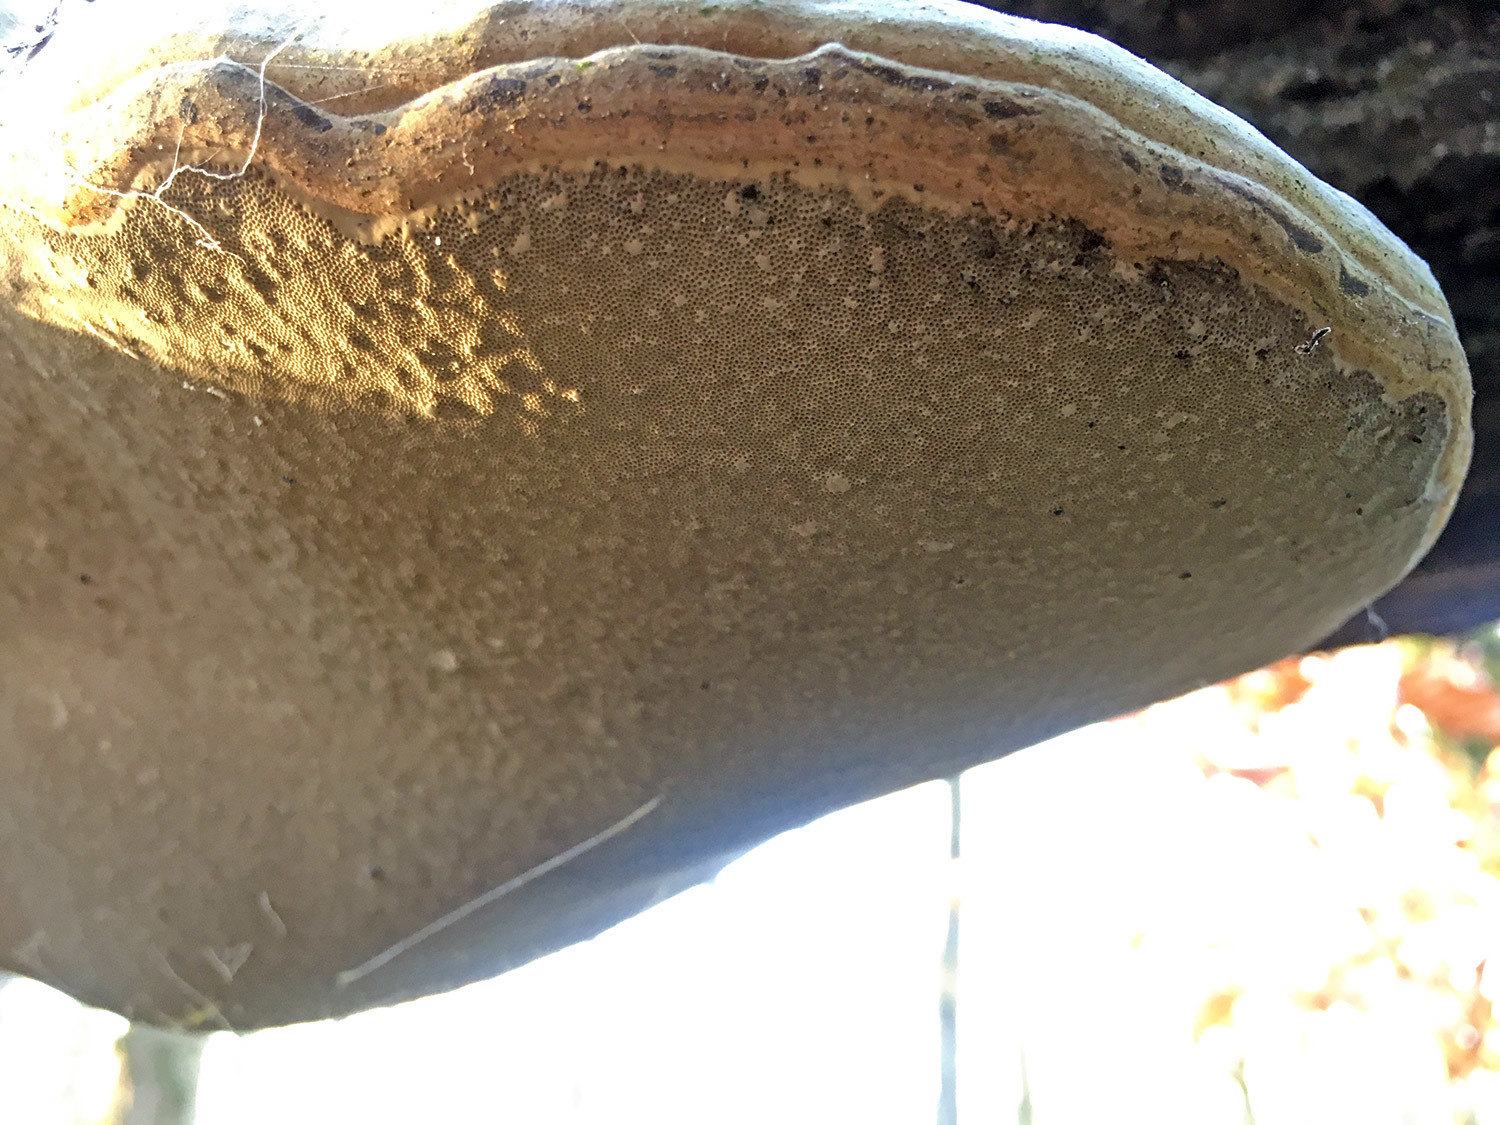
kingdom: Fungi
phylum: Basidiomycota
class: Agaricomycetes
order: Polyporales
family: Polyporaceae
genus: Fomes
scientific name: Fomes fomentarius
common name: Hoof fungus
